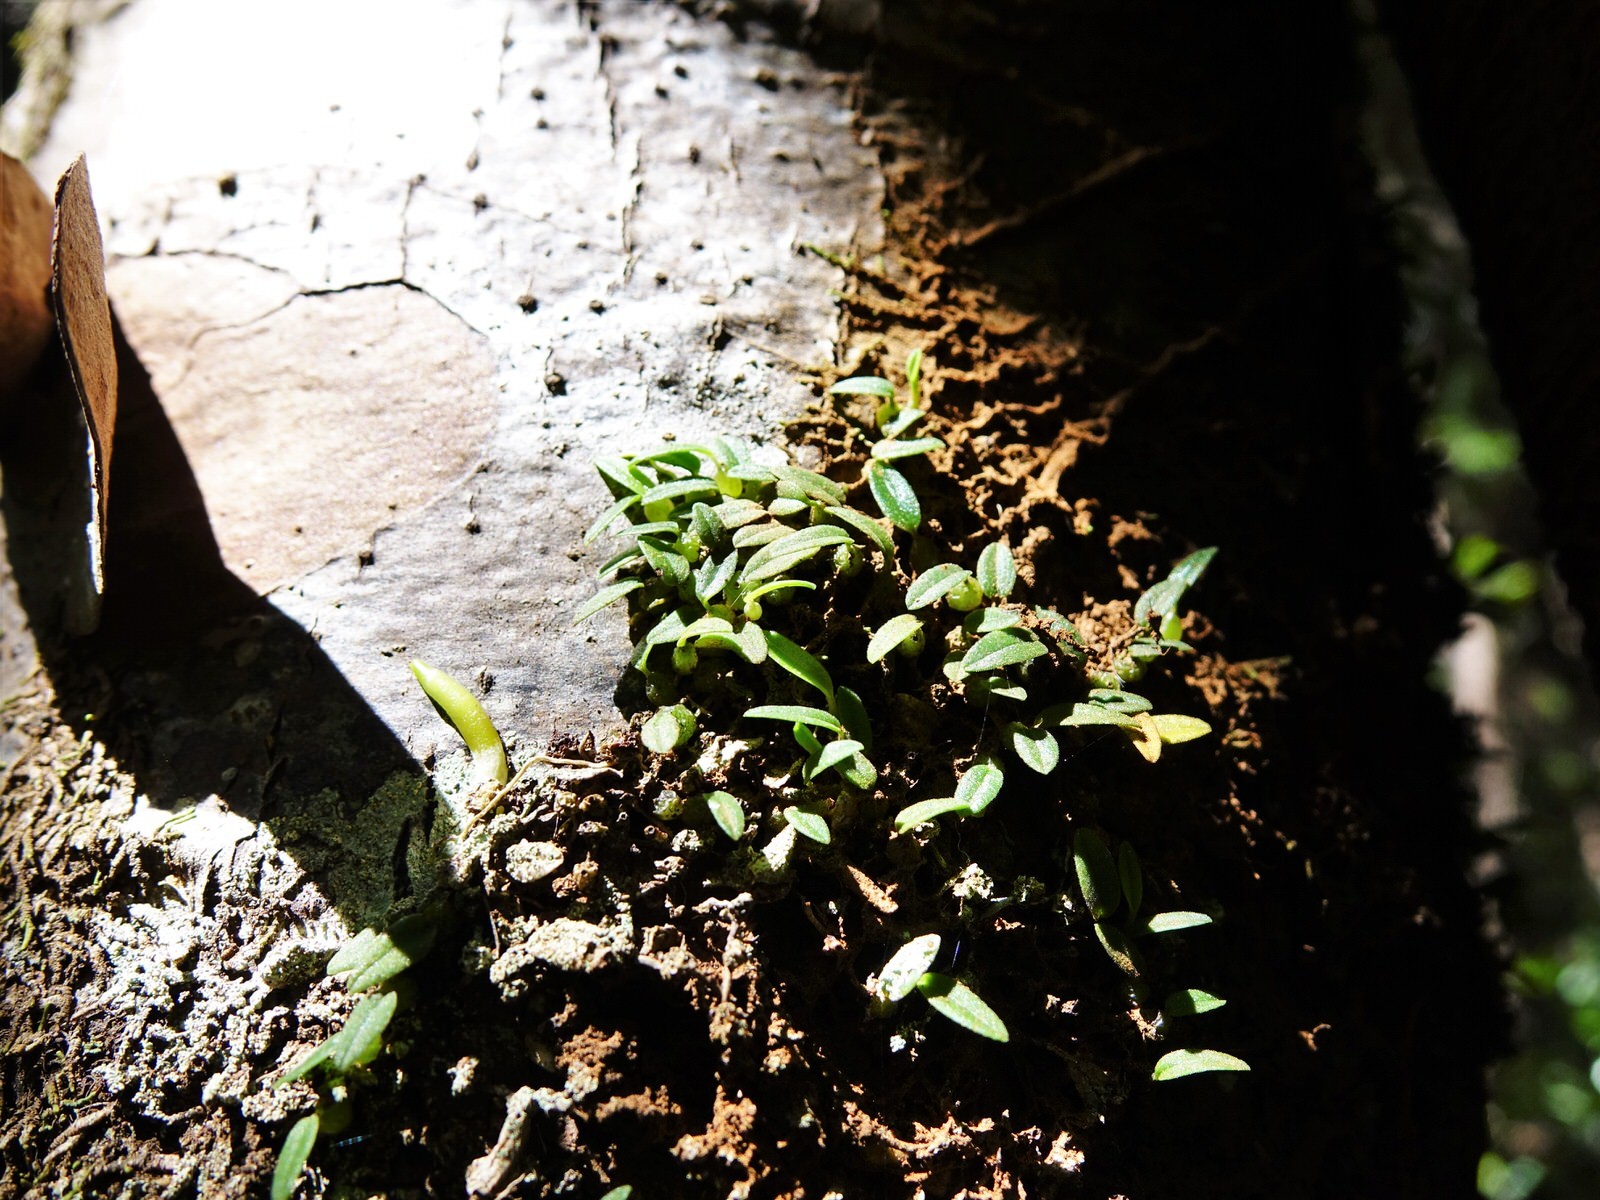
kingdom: Plantae
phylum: Tracheophyta
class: Liliopsida
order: Asparagales
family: Orchidaceae
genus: Bulbophyllum
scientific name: Bulbophyllum pygmaeum
